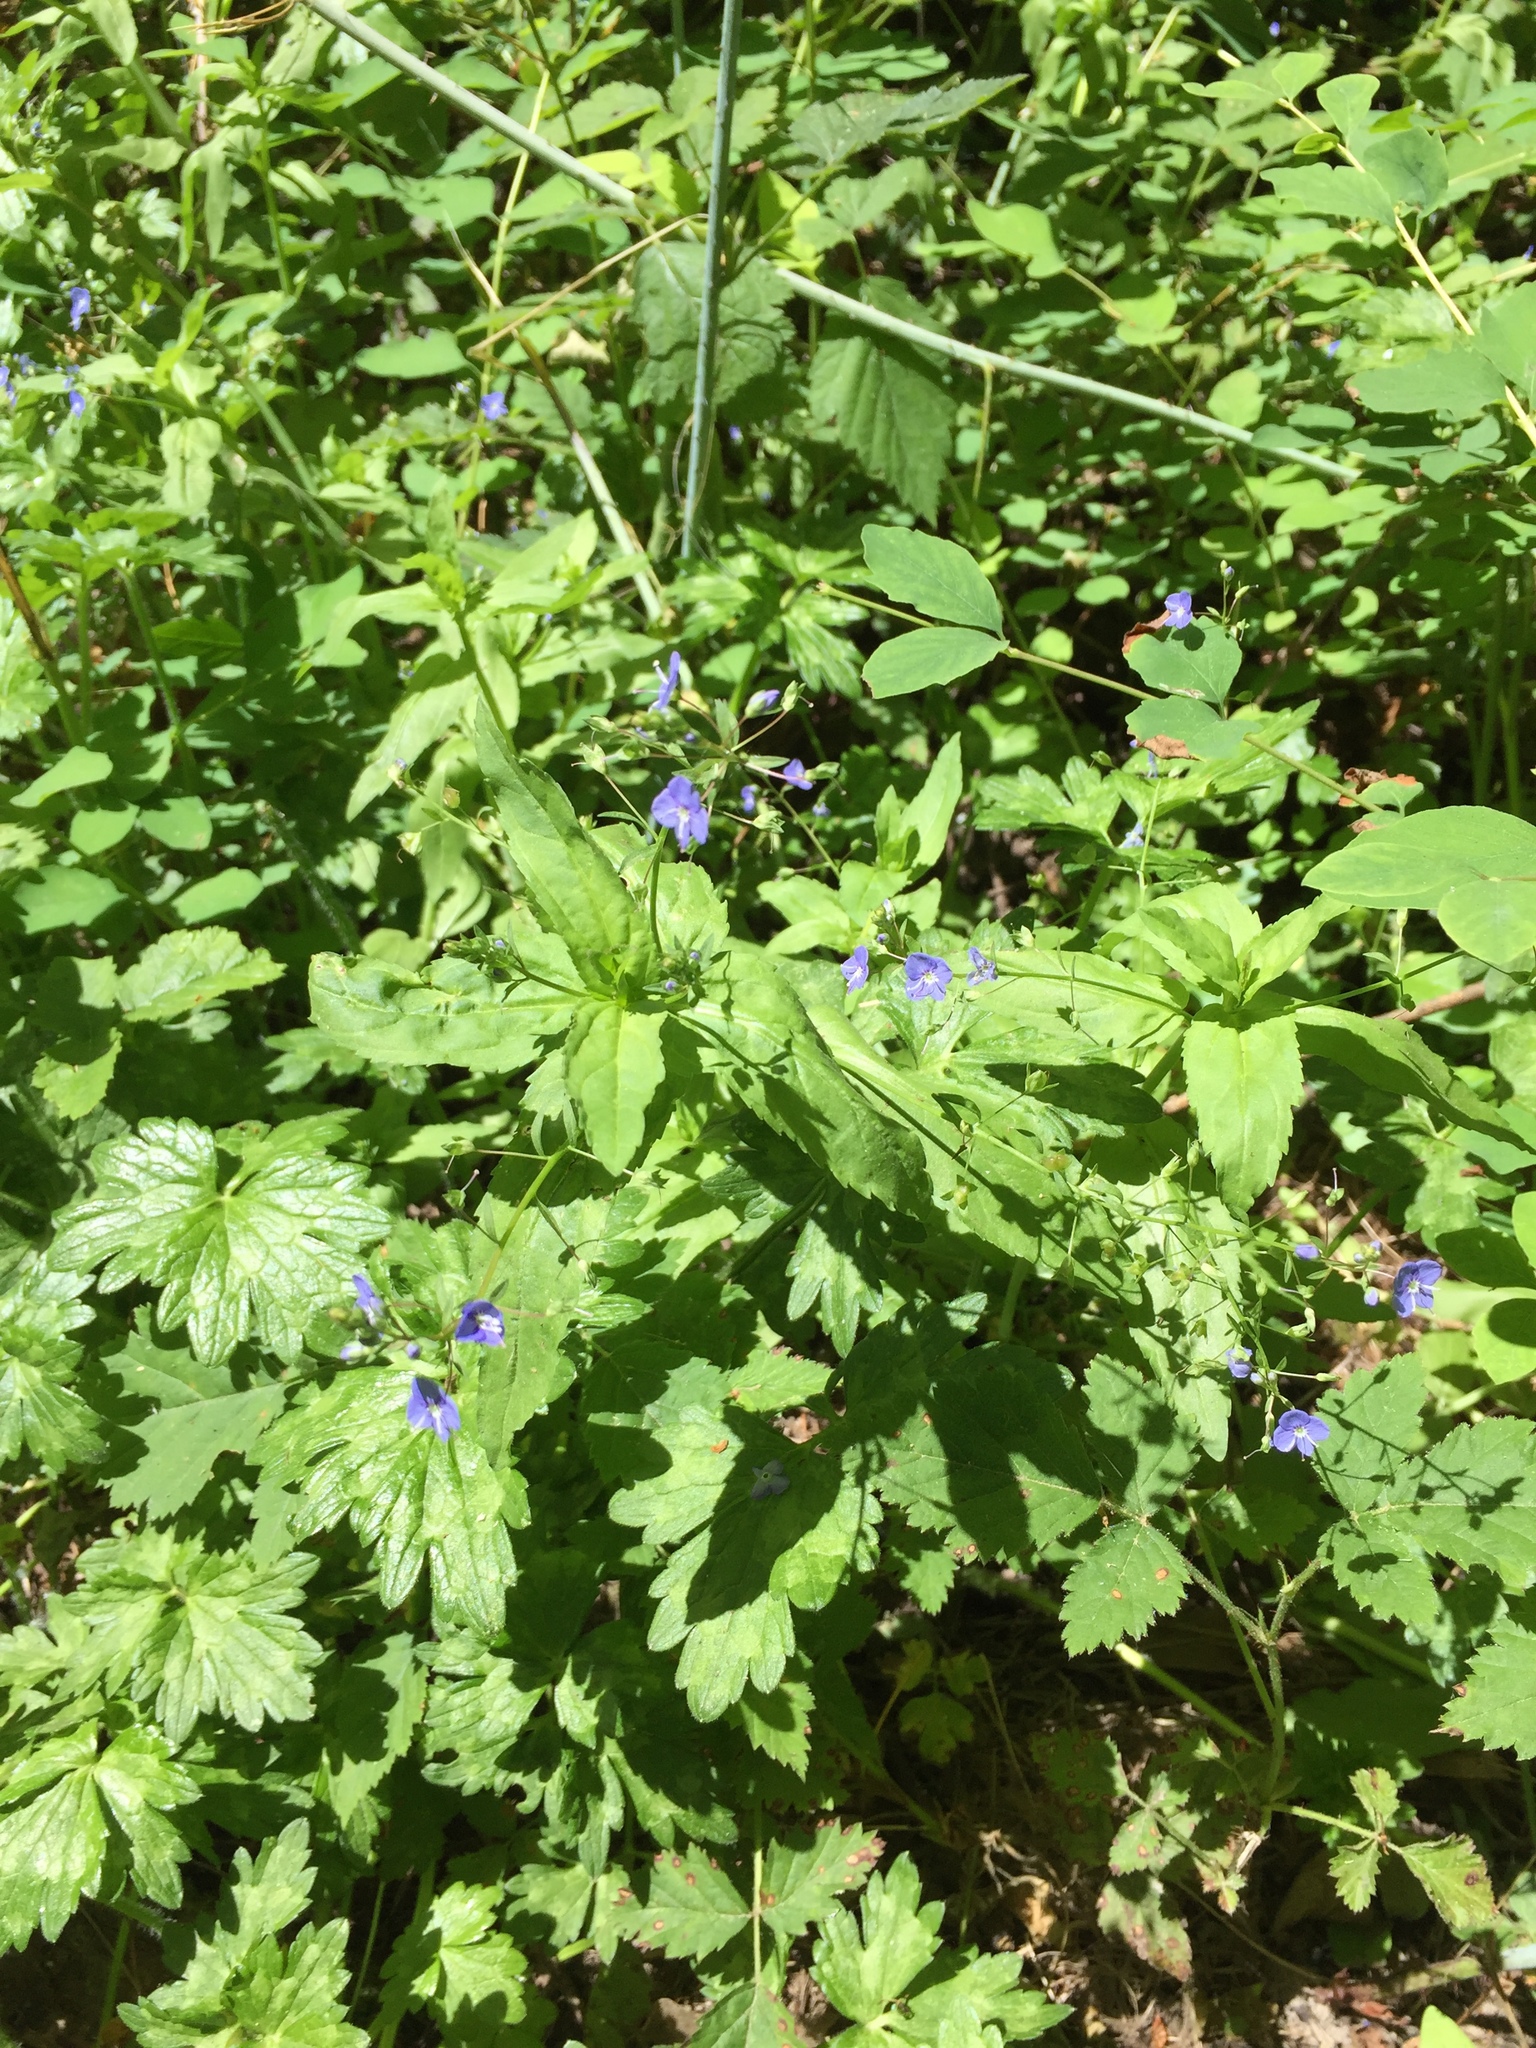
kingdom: Plantae
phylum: Tracheophyta
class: Magnoliopsida
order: Lamiales
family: Plantaginaceae
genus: Veronica
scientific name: Veronica americana
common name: American brooklime
